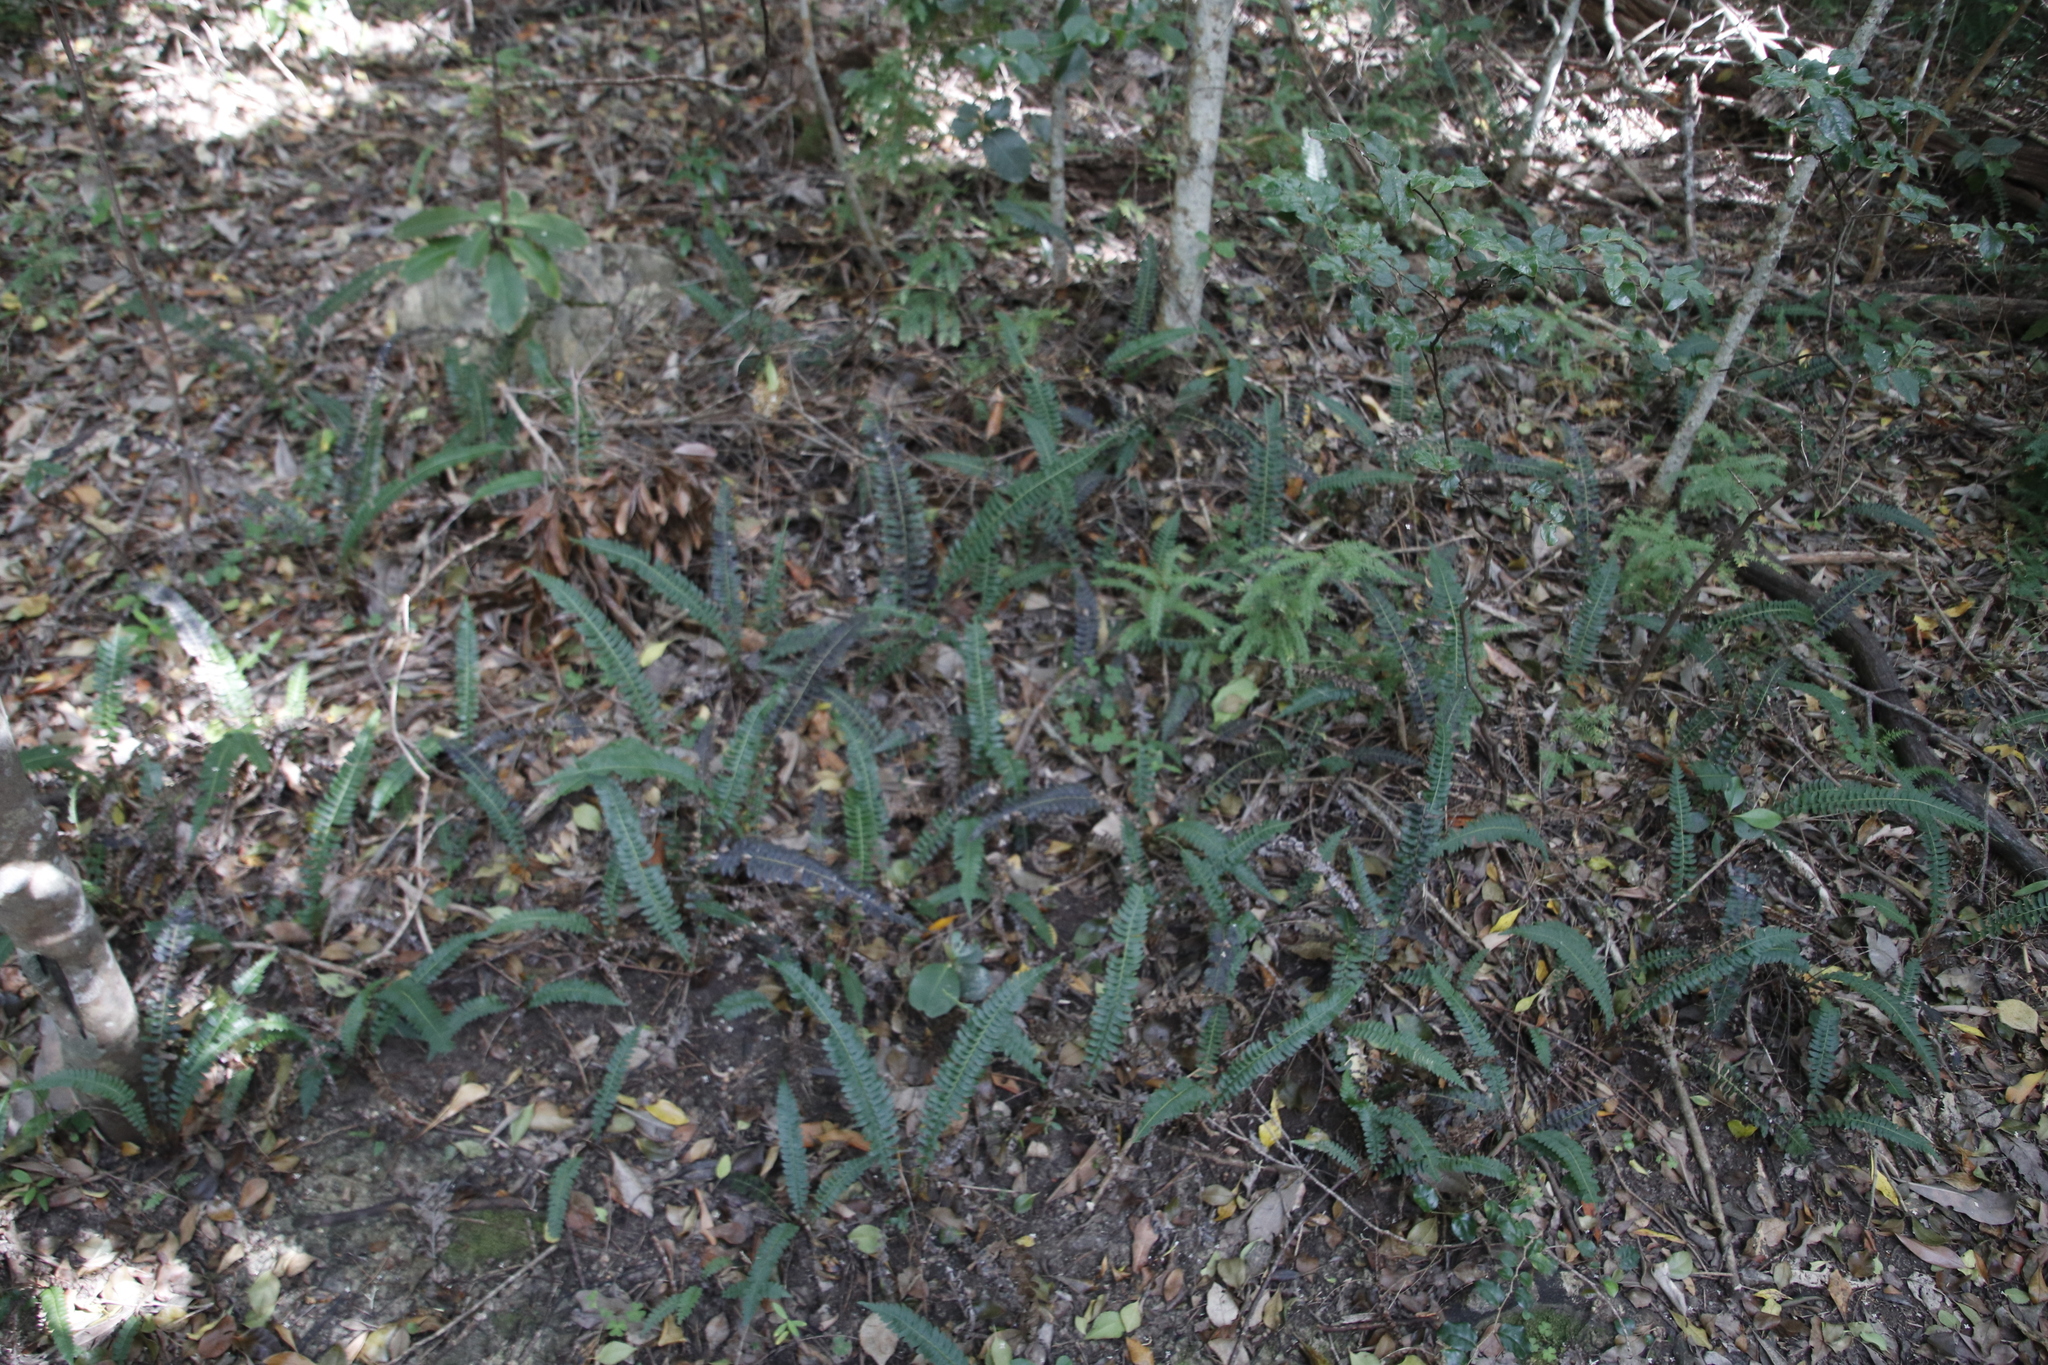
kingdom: Plantae
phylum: Tracheophyta
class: Polypodiopsida
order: Polypodiales
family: Blechnaceae
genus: Blechnum
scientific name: Blechnum australe
